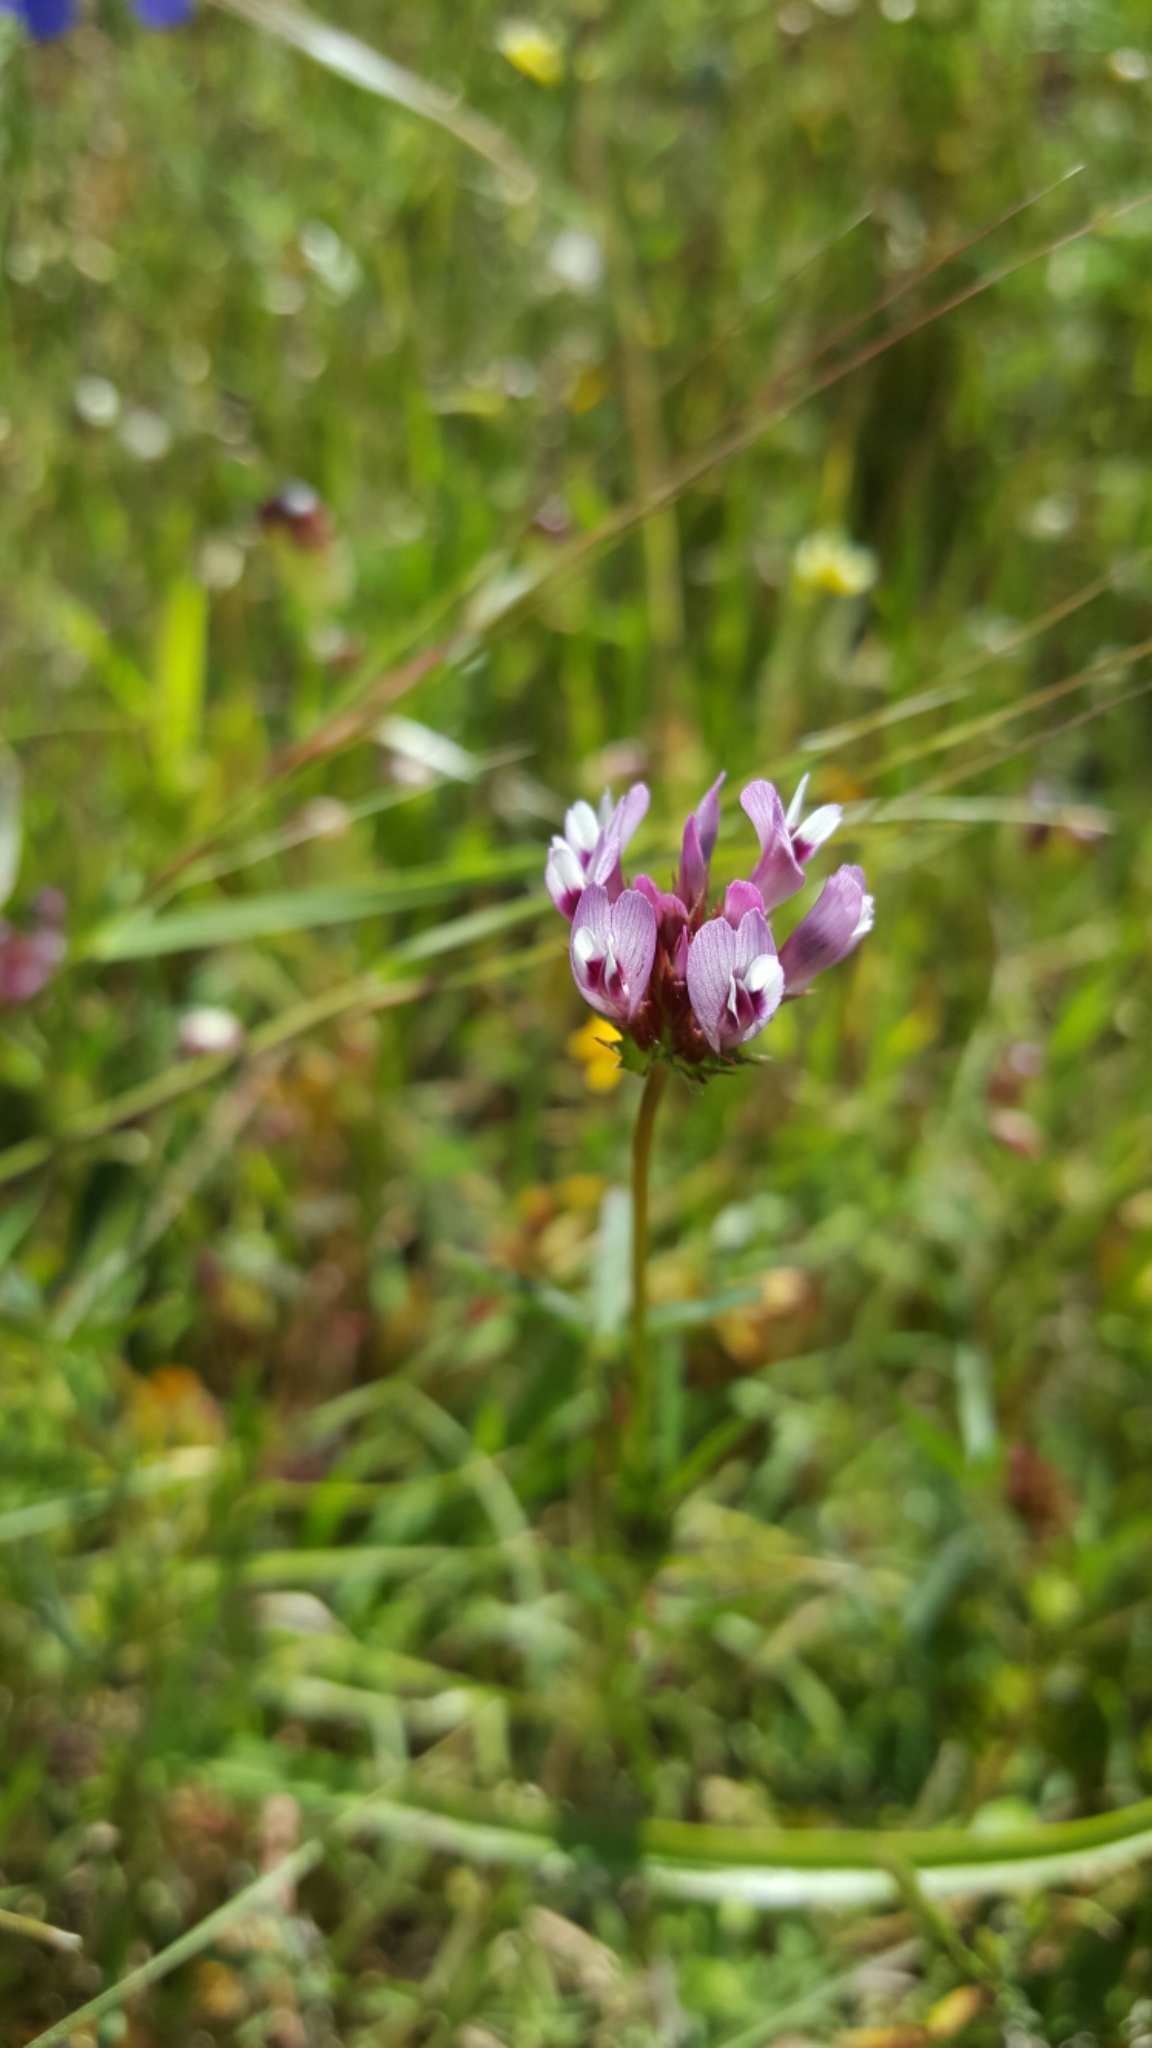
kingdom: Plantae
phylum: Tracheophyta
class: Magnoliopsida
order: Fabales
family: Fabaceae
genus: Trifolium
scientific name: Trifolium willdenovii
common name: Tomcat clover
